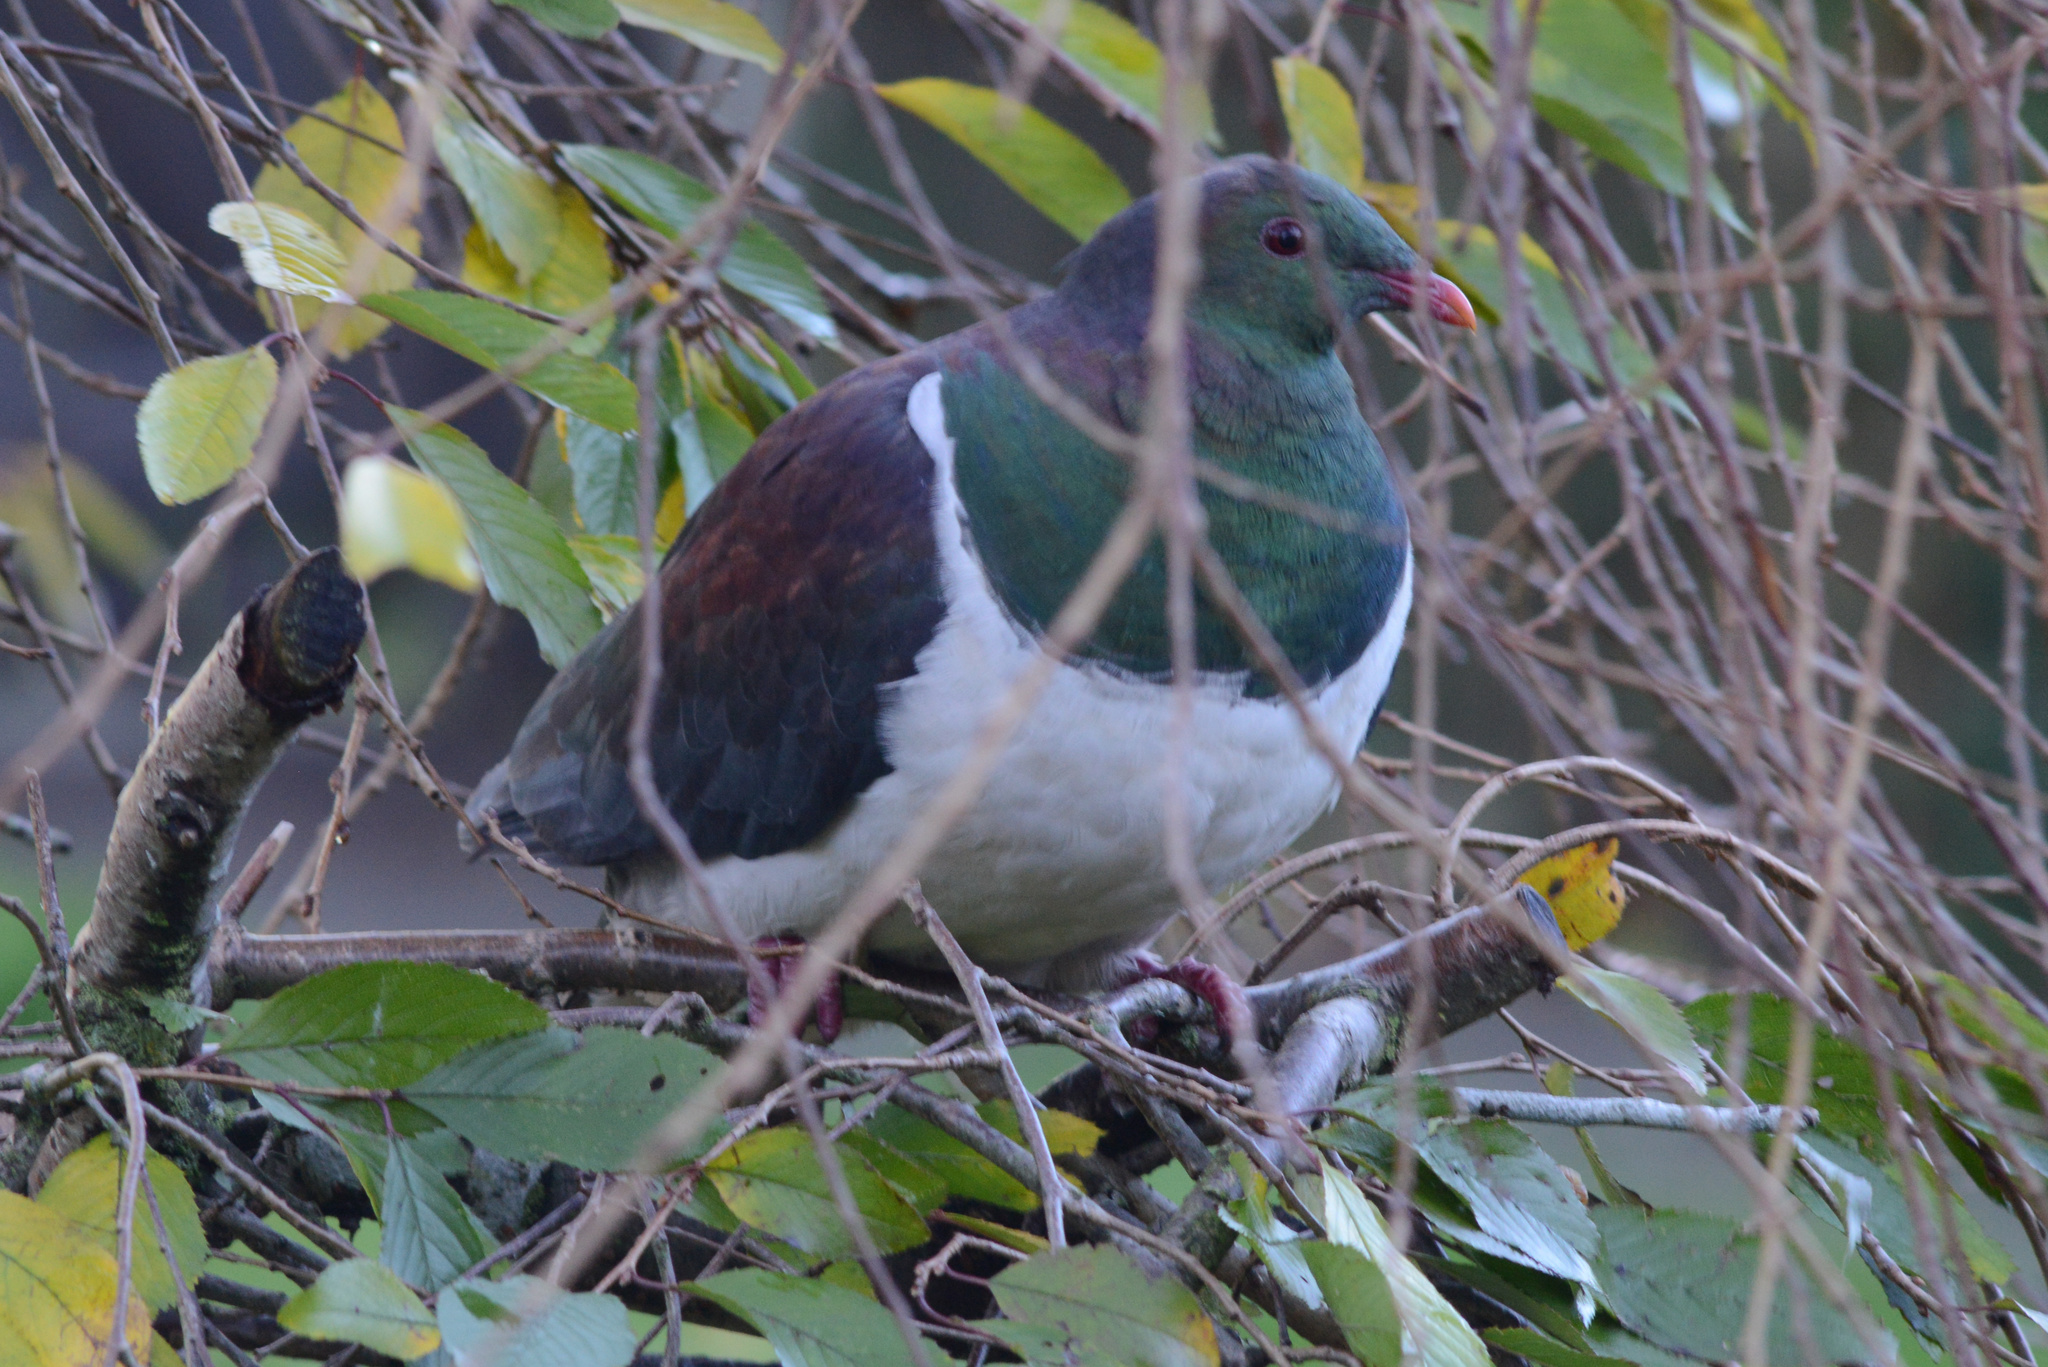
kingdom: Animalia
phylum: Chordata
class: Aves
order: Columbiformes
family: Columbidae
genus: Hemiphaga
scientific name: Hemiphaga novaeseelandiae
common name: New zealand pigeon
